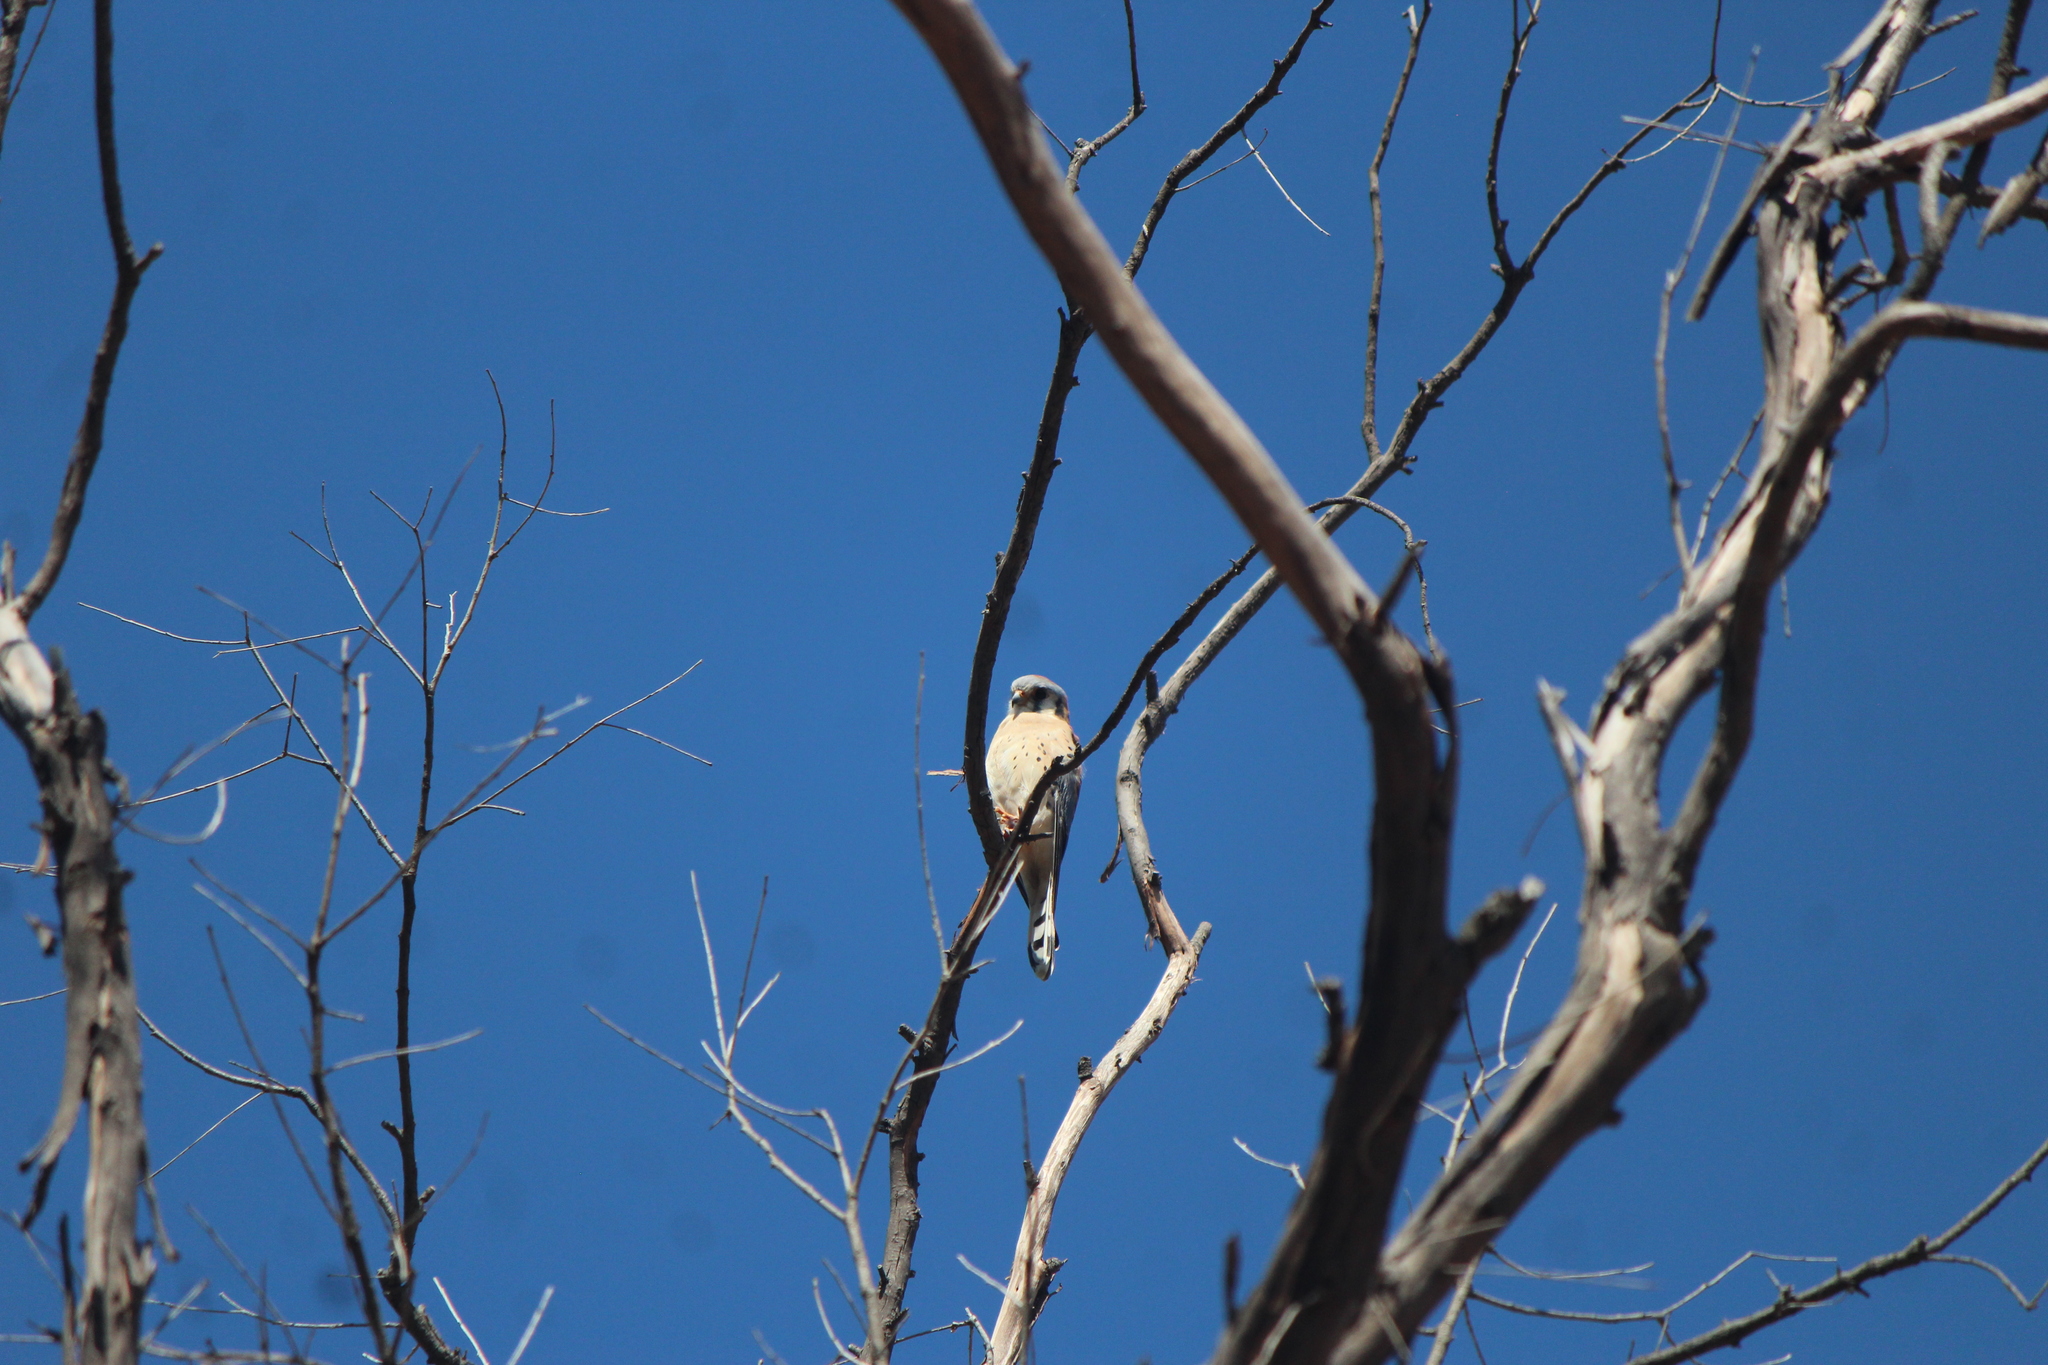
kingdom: Animalia
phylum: Chordata
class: Aves
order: Falconiformes
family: Falconidae
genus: Falco
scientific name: Falco sparverius
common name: American kestrel
